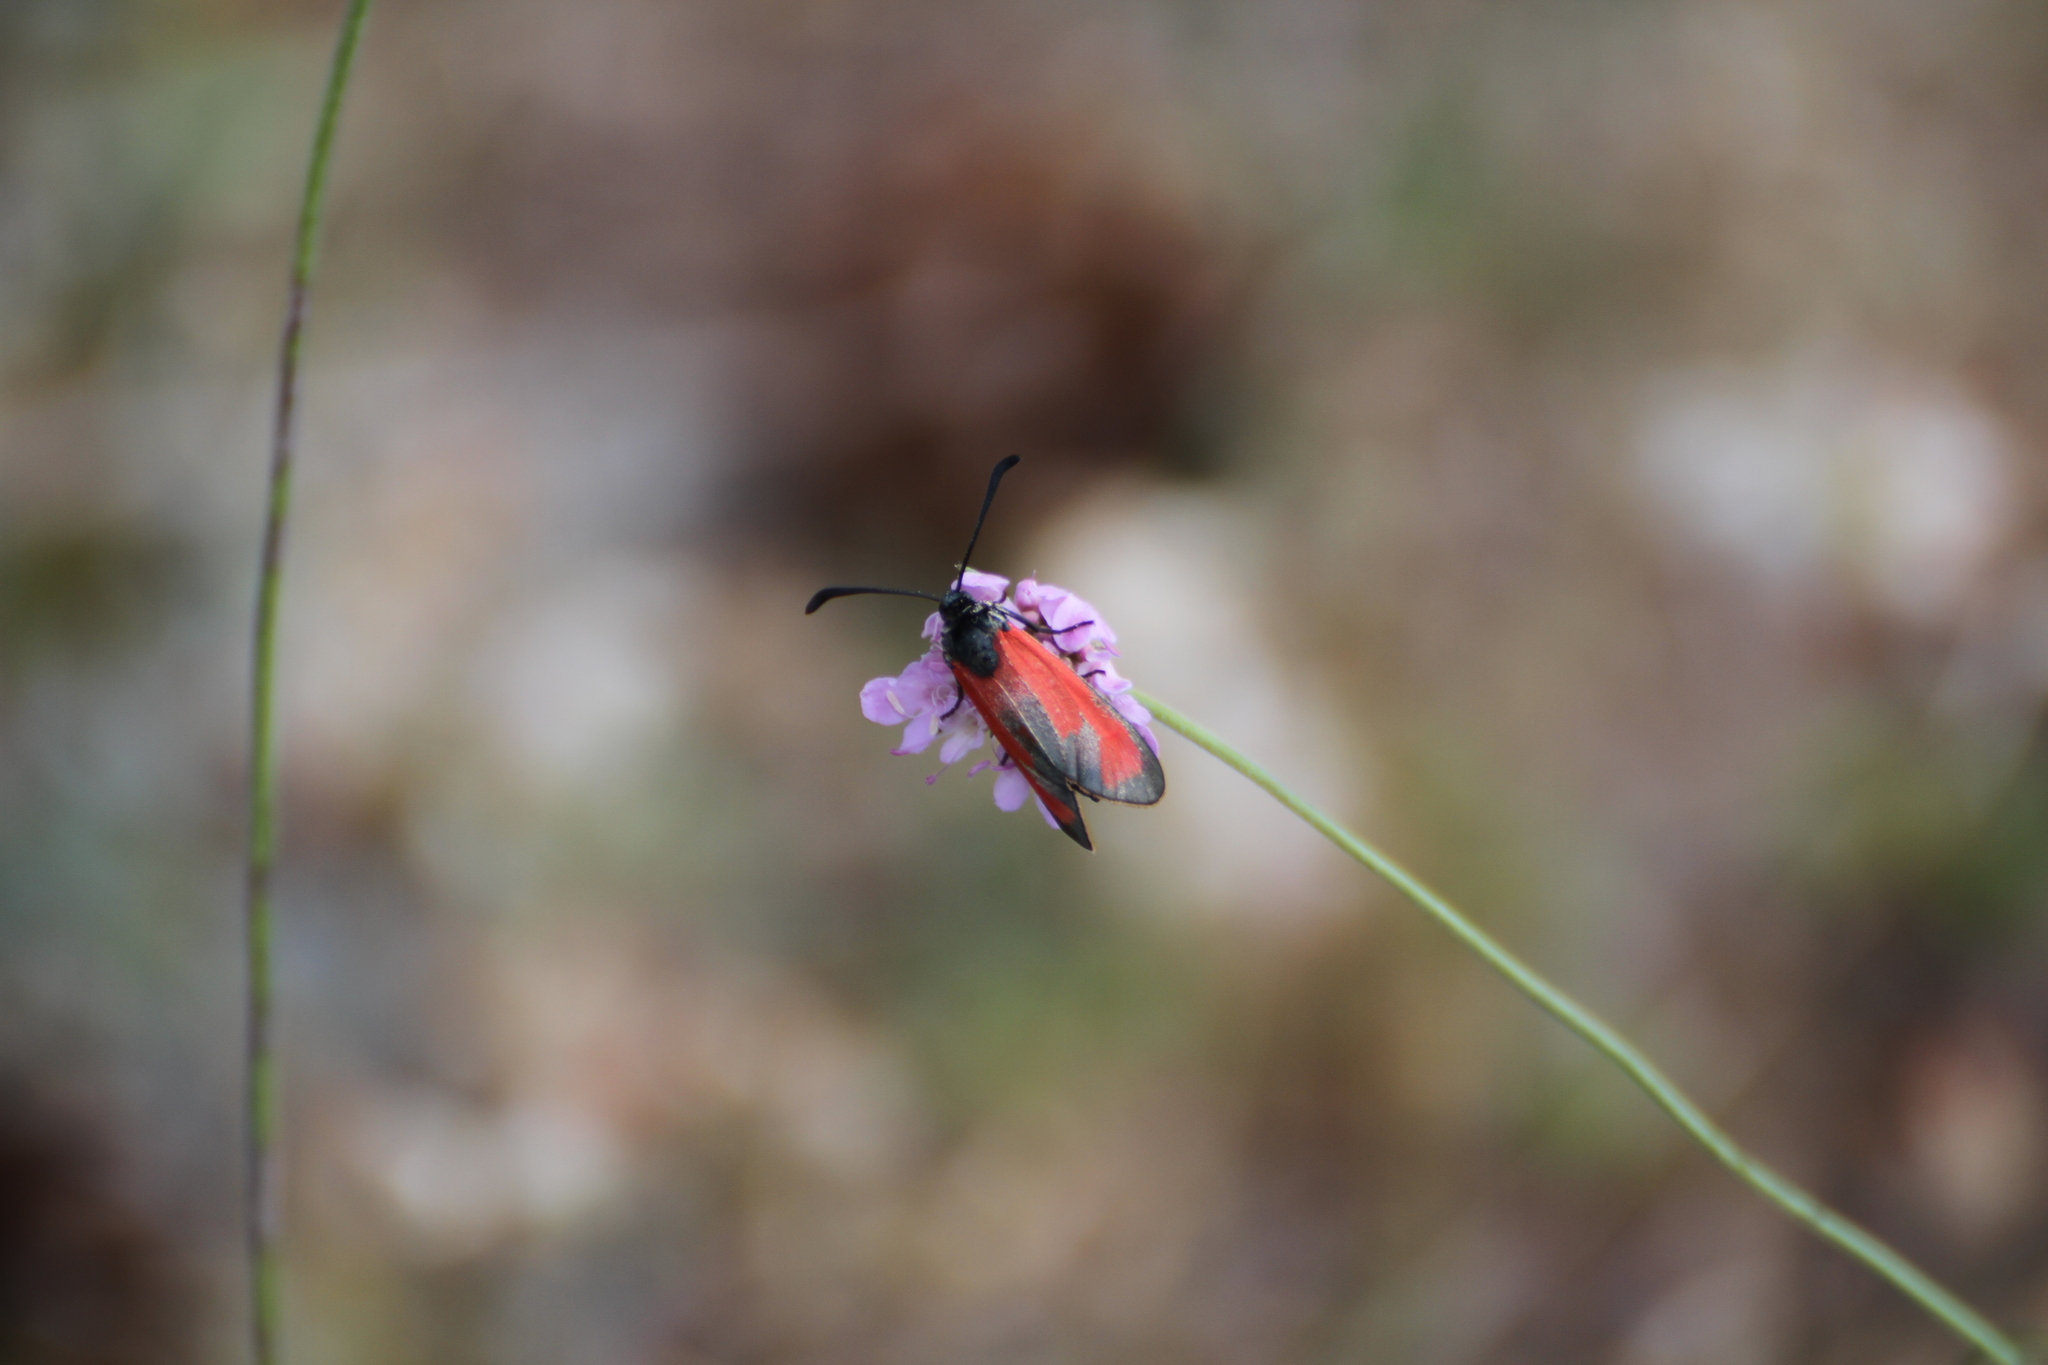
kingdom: Animalia
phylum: Arthropoda
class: Insecta
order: Lepidoptera
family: Zygaenidae
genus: Zygaena
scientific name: Zygaena erythrus
